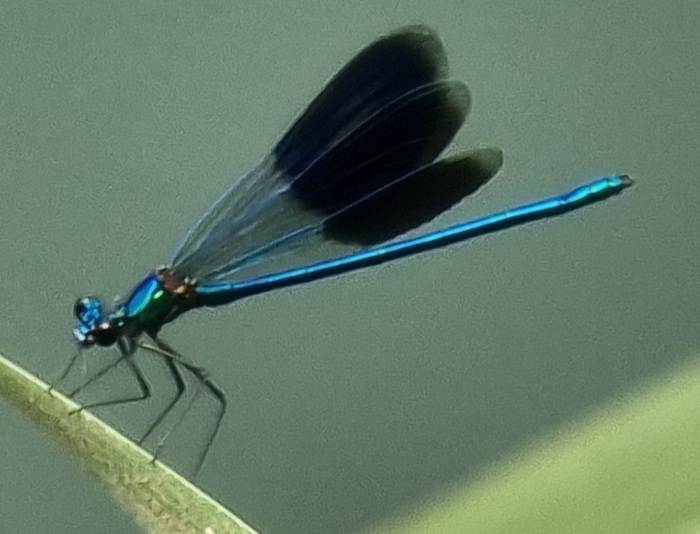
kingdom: Animalia
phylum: Arthropoda
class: Insecta
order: Odonata
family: Calopterygidae
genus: Calopteryx
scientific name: Calopteryx splendens
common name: Banded demoiselle
